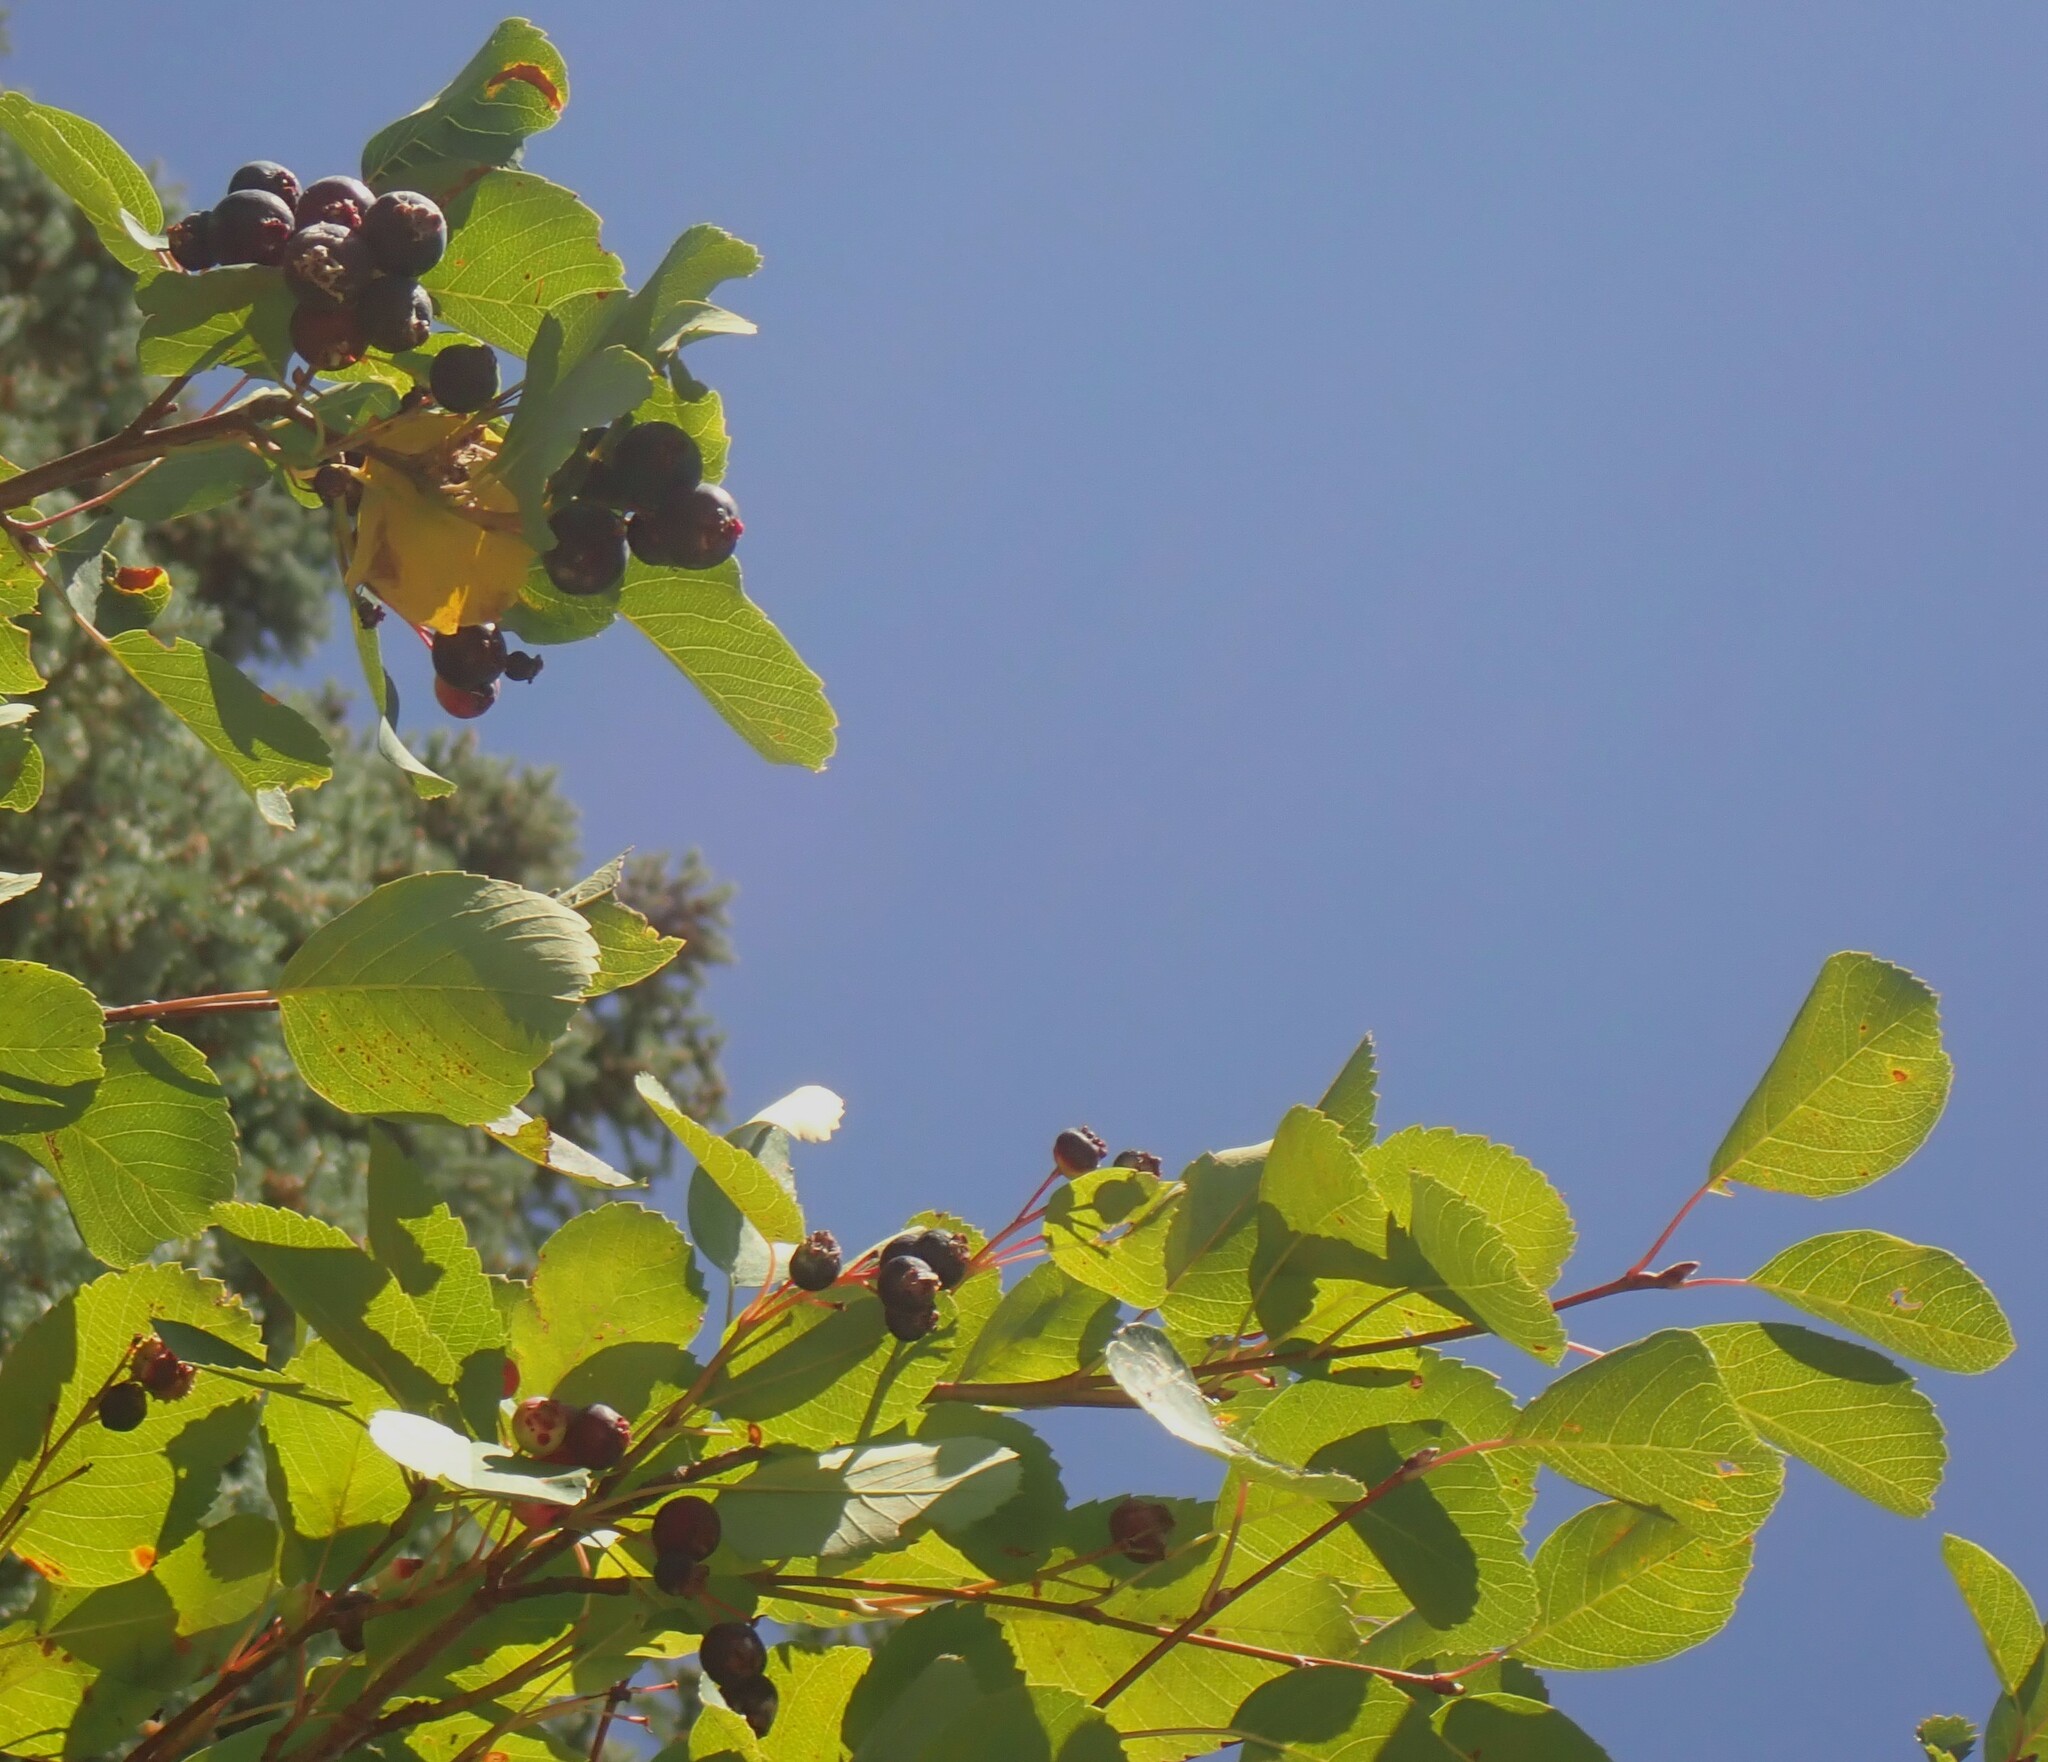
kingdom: Plantae
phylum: Tracheophyta
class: Magnoliopsida
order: Rosales
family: Rosaceae
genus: Amelanchier
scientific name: Amelanchier alnifolia
